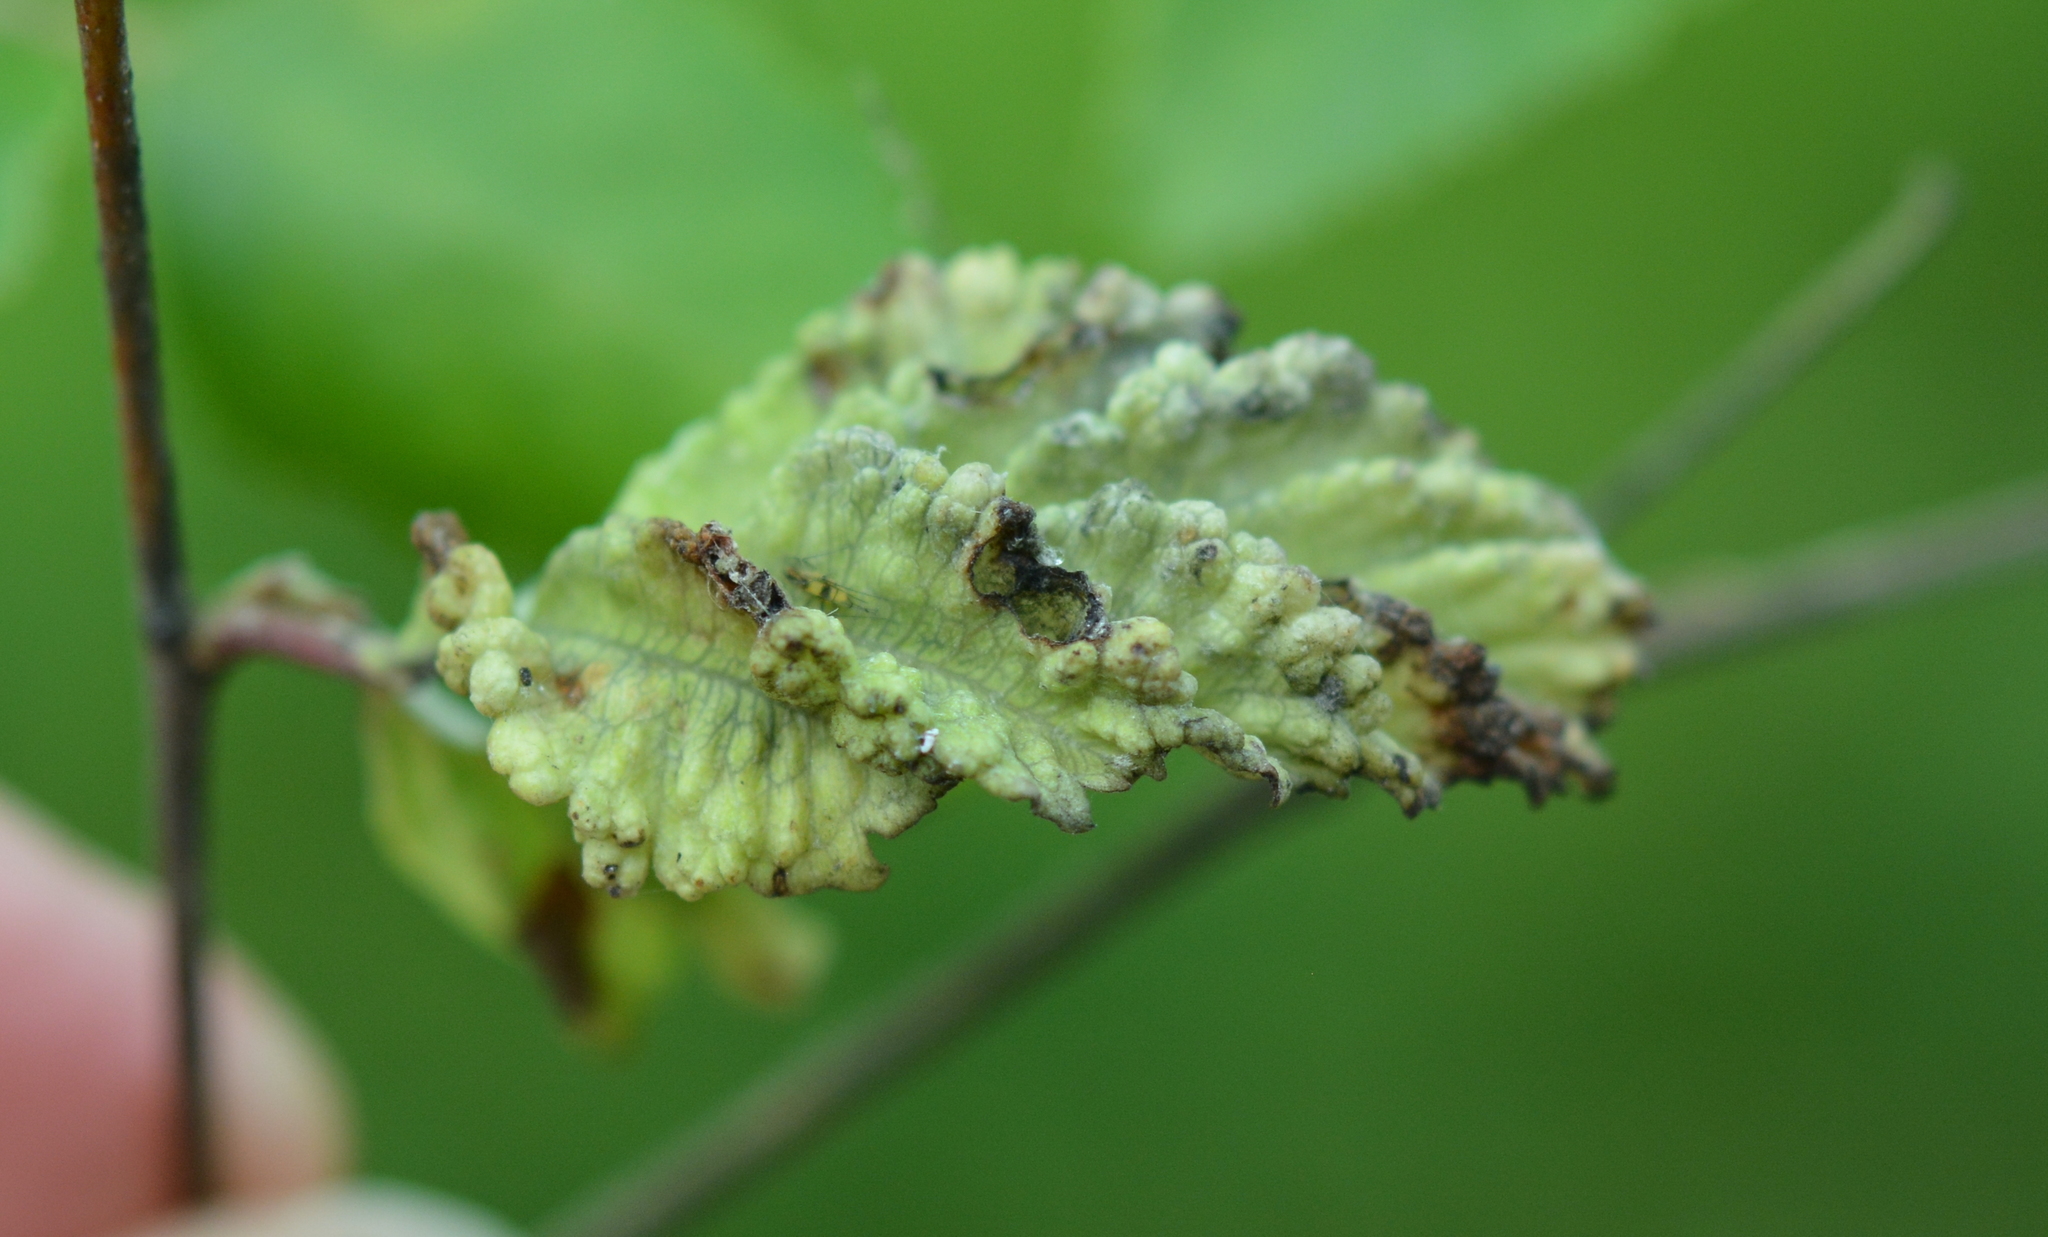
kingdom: Animalia
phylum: Arthropoda
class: Insecta
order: Hemiptera
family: Aphididae
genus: Hamamelistes
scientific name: Hamamelistes spinosus
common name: Witch hazel gall aphid
